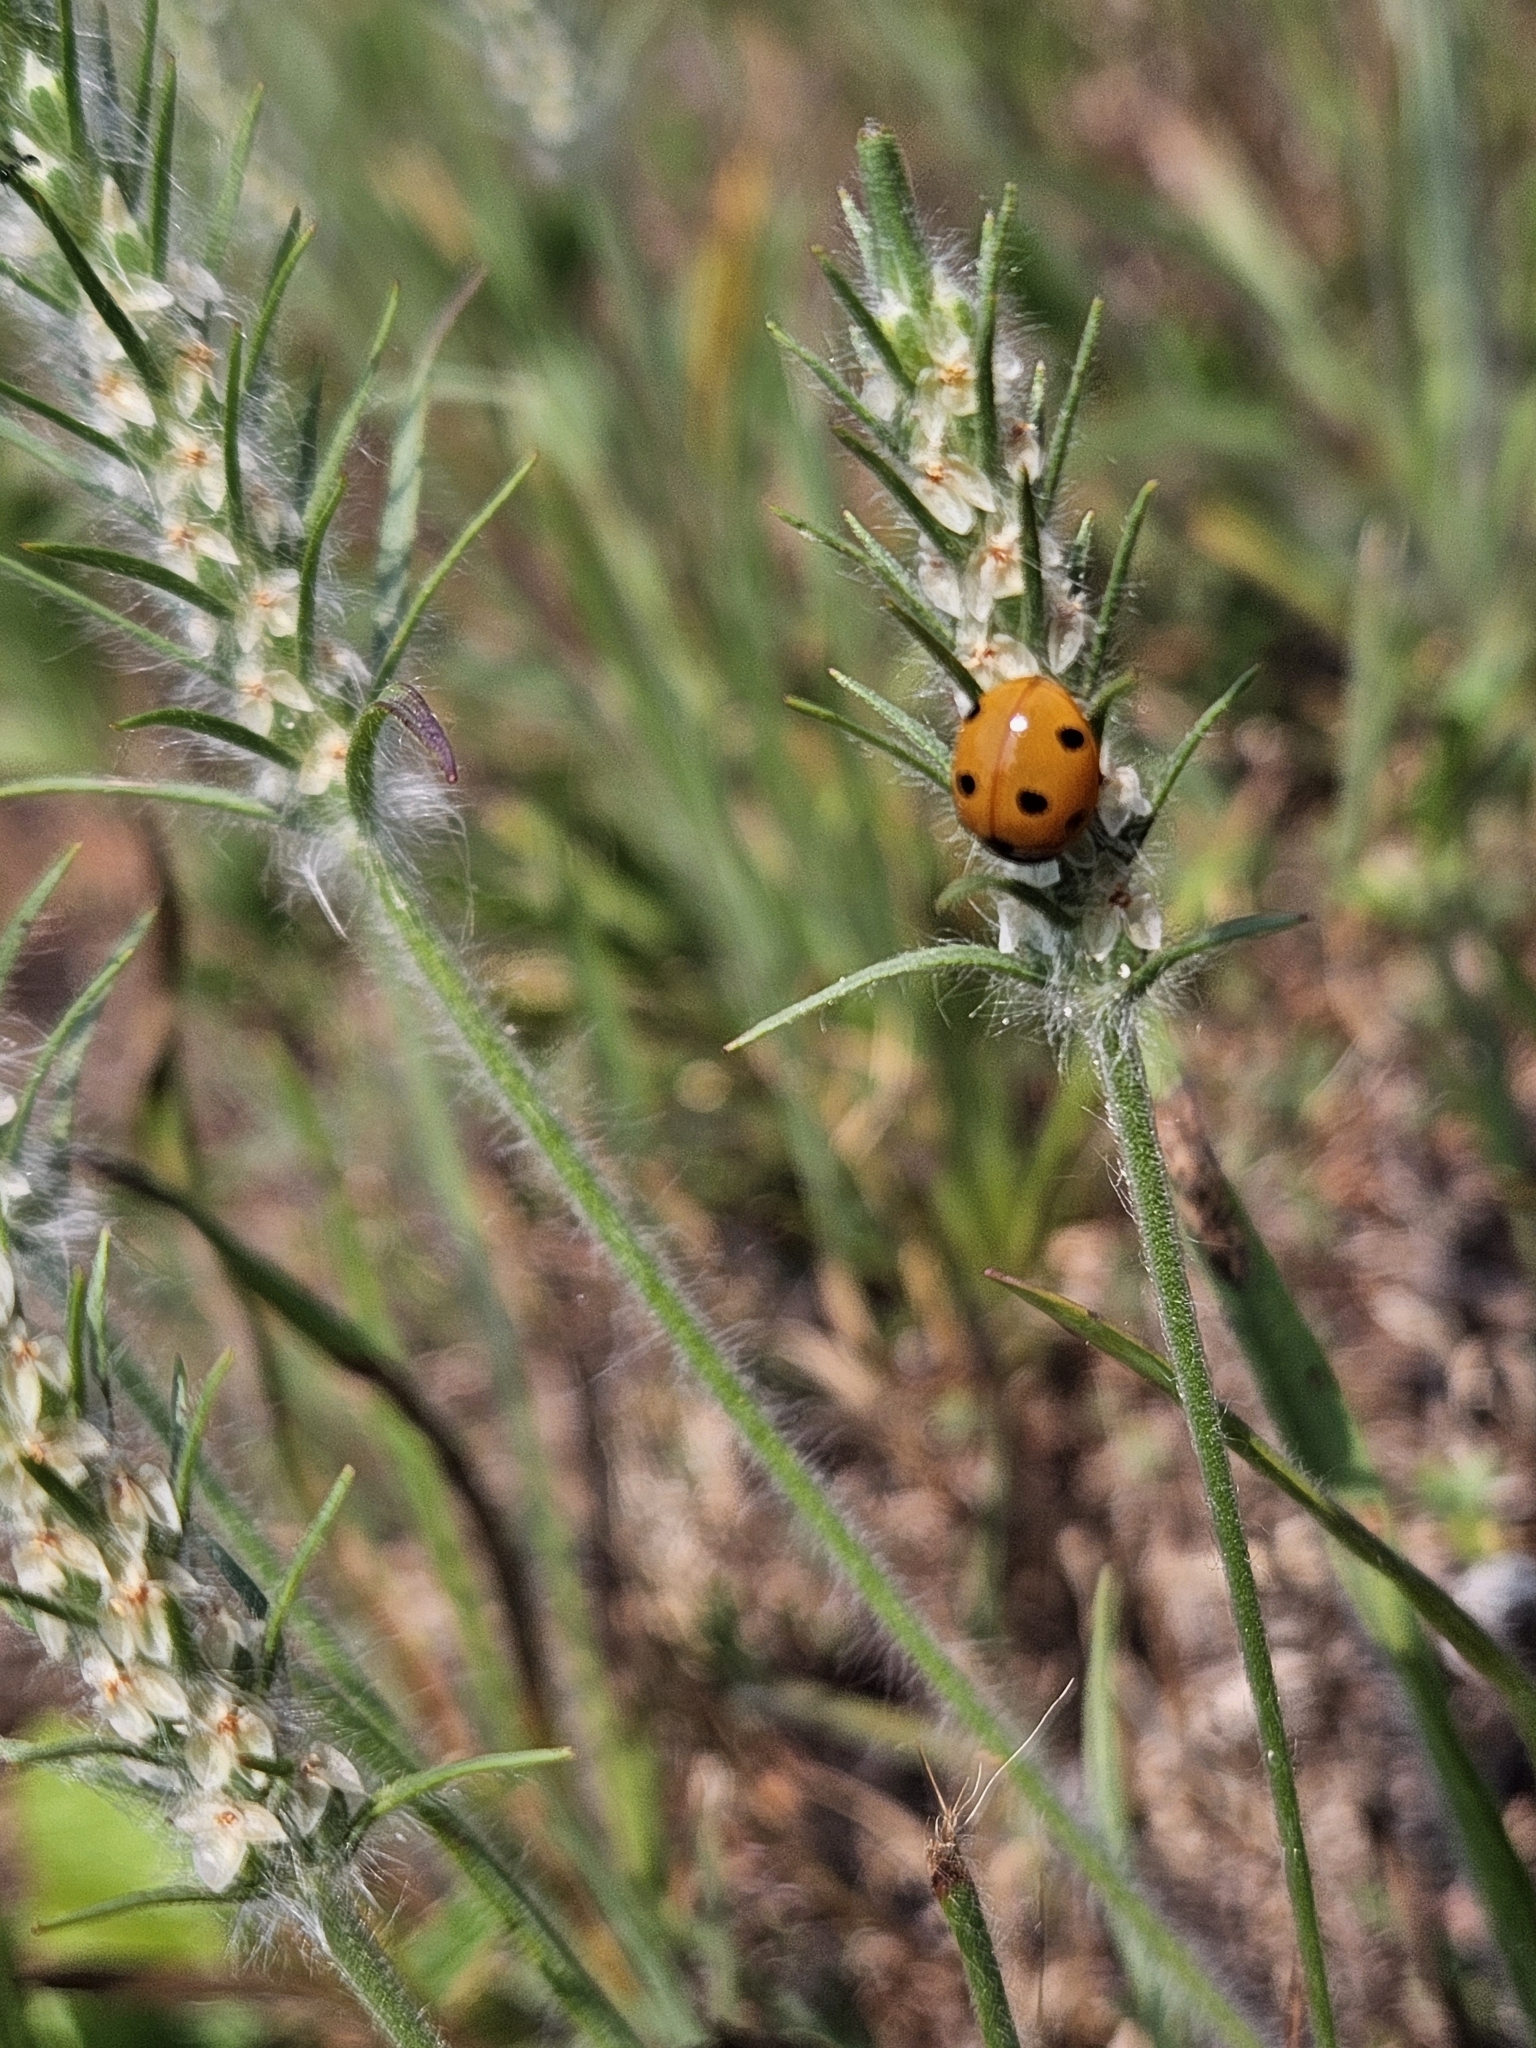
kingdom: Animalia
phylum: Arthropoda
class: Insecta
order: Coleoptera
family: Coccinellidae
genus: Coccinella
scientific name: Coccinella septempunctata
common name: Sevenspotted lady beetle
